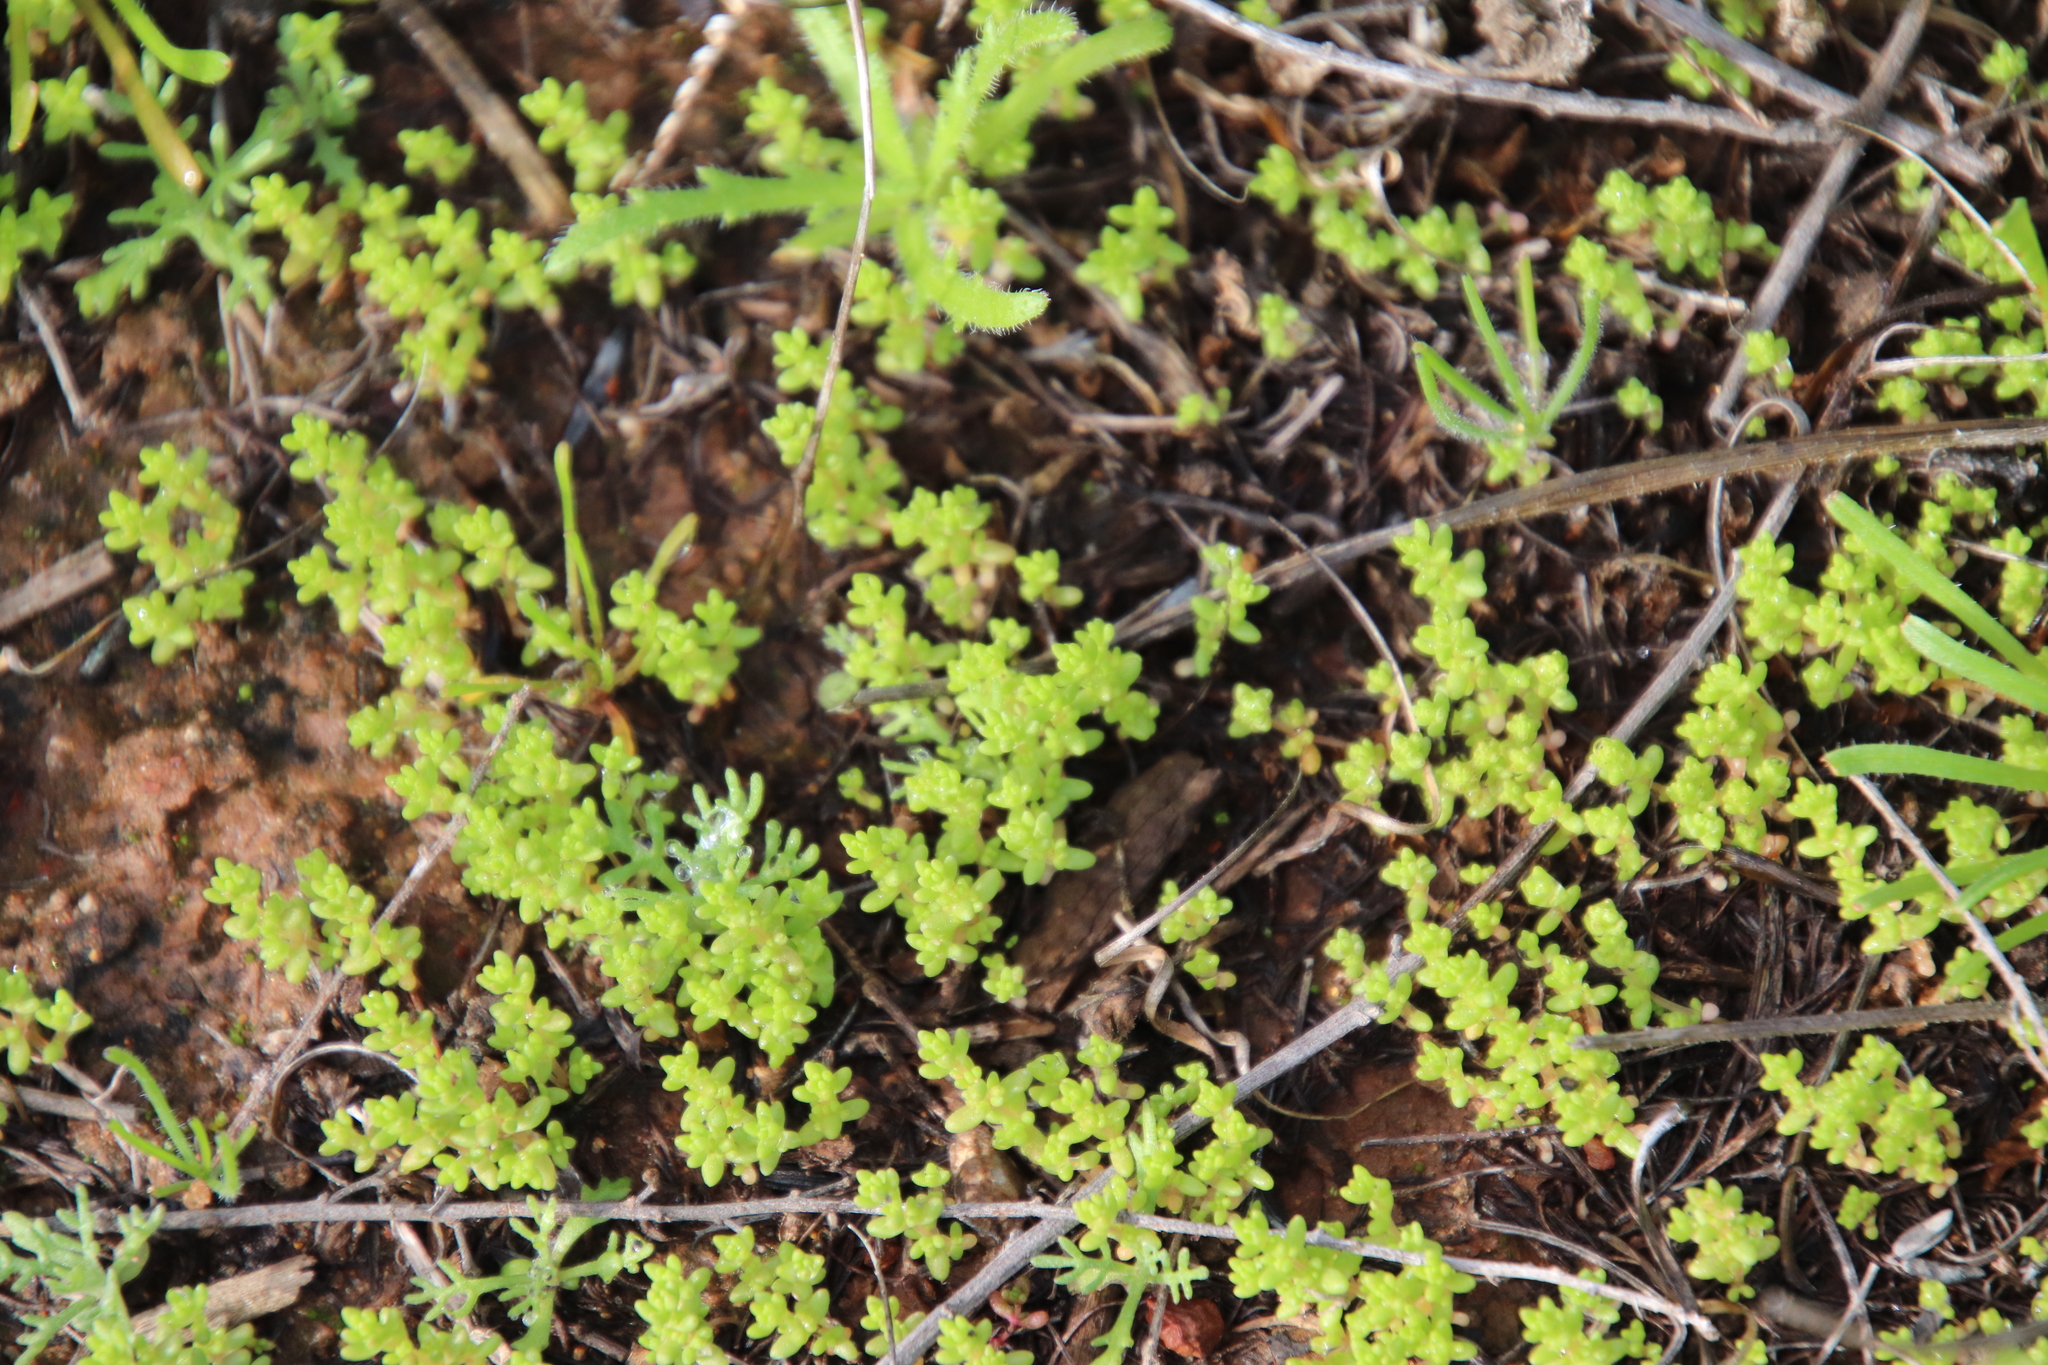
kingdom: Plantae
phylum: Tracheophyta
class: Magnoliopsida
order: Saxifragales
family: Crassulaceae
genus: Crassula
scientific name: Crassula connata
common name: Erect pygmyweed
